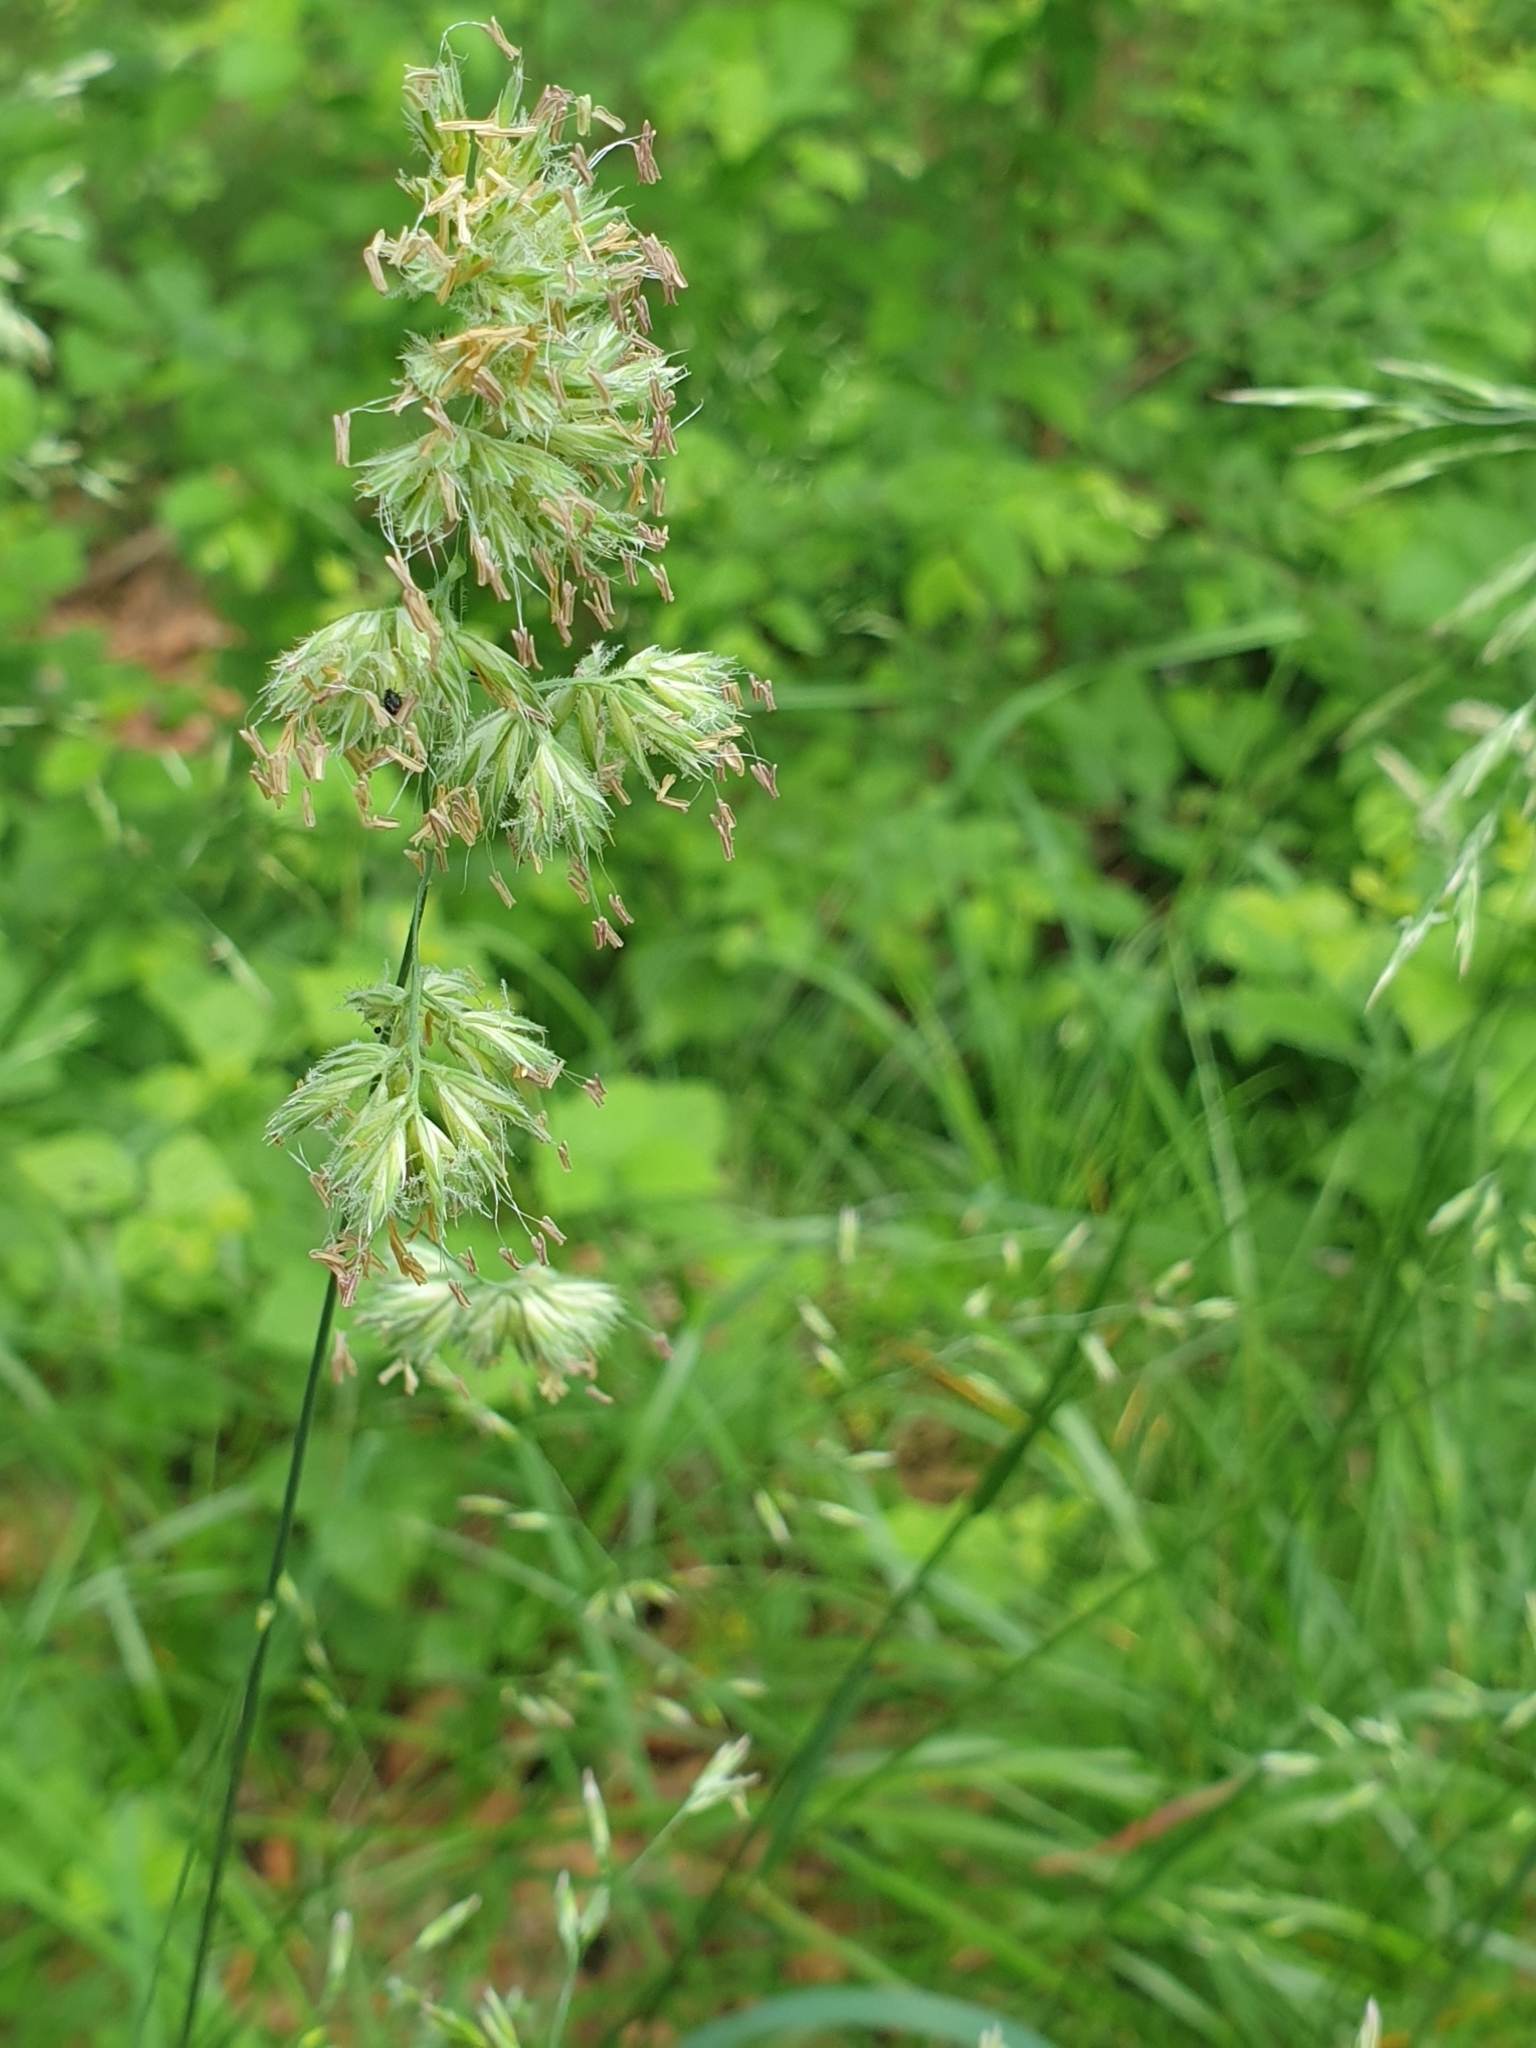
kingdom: Plantae
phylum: Tracheophyta
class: Liliopsida
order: Poales
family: Poaceae
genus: Dactylis
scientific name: Dactylis glomerata
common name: Orchardgrass
